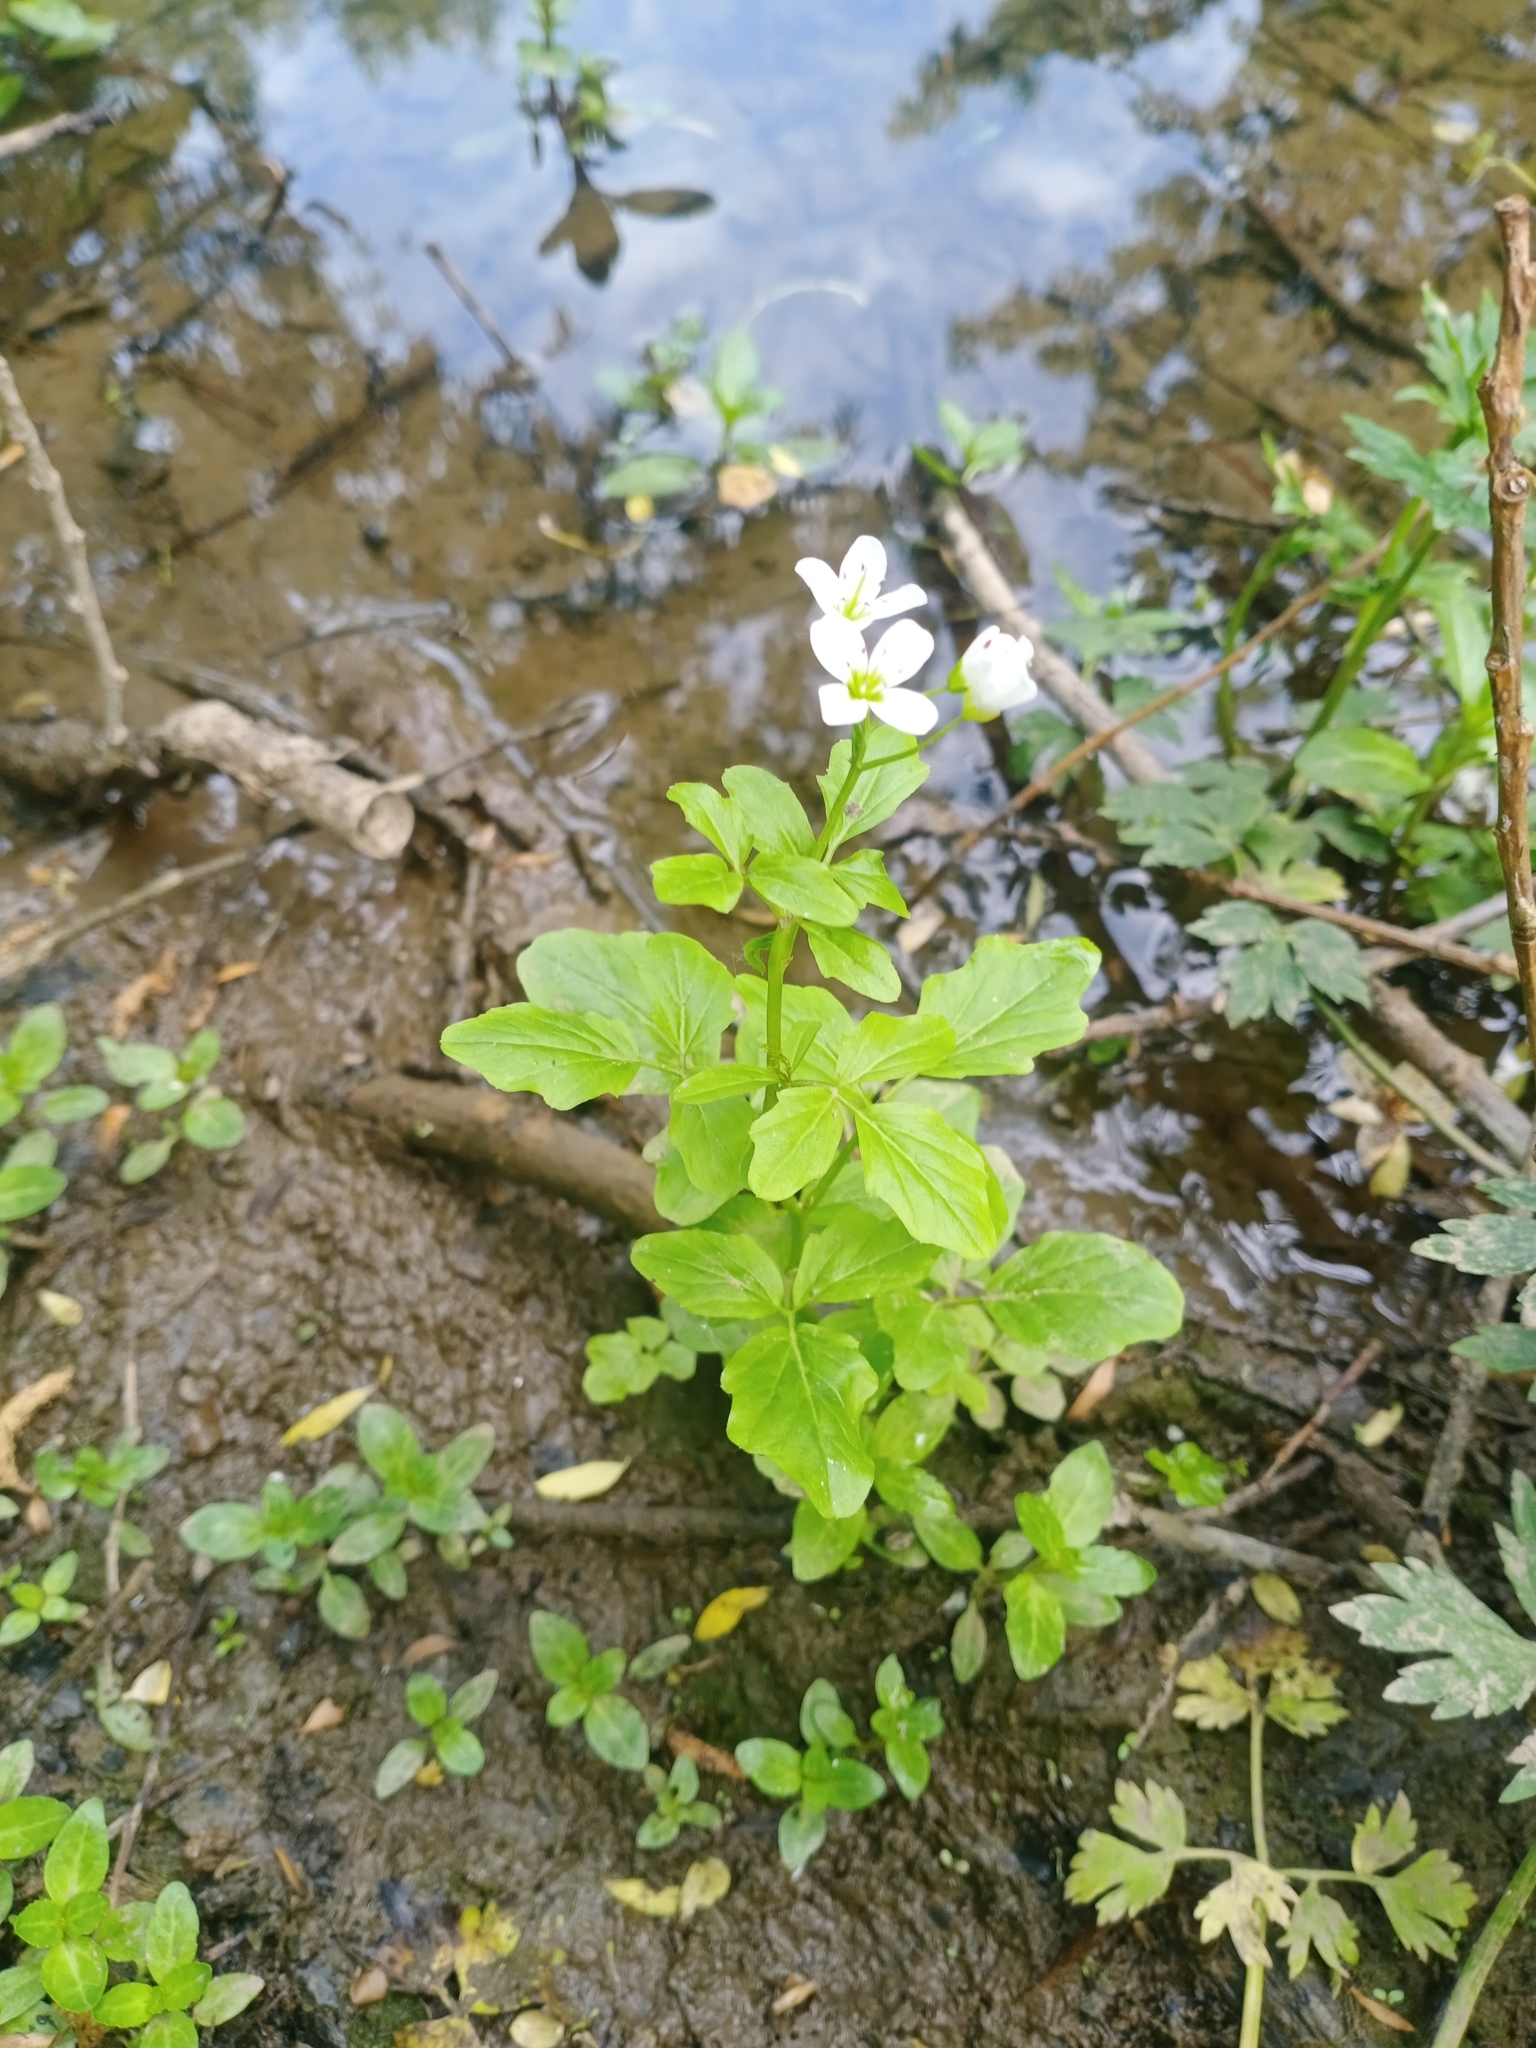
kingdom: Plantae
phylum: Tracheophyta
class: Magnoliopsida
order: Brassicales
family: Brassicaceae
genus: Cardamine
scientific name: Cardamine amara
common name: Large bitter-cress
